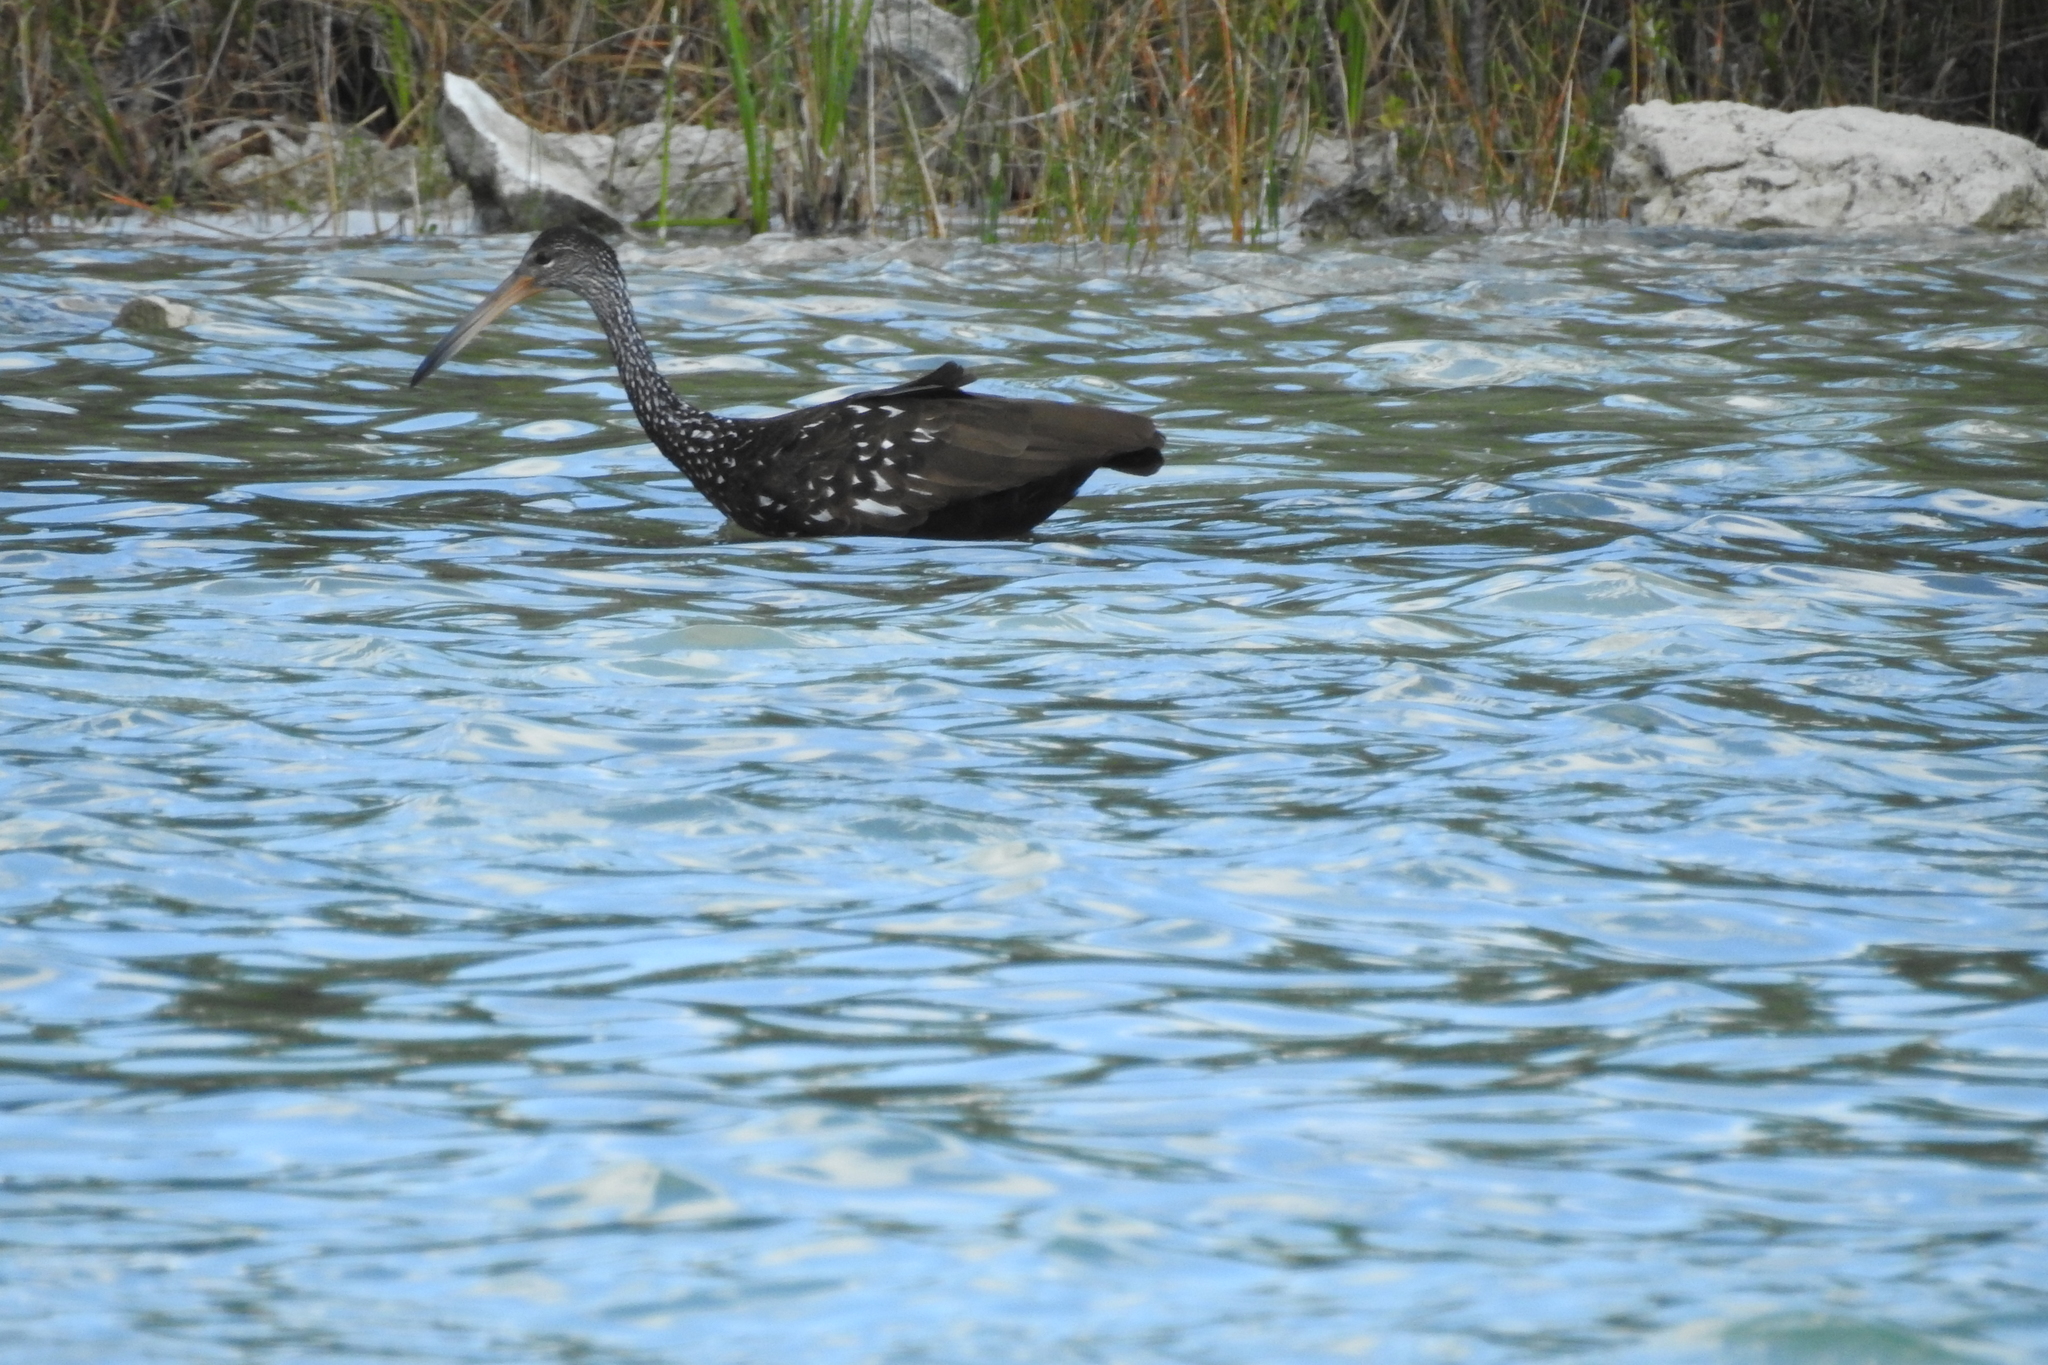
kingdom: Animalia
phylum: Chordata
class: Aves
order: Gruiformes
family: Aramidae
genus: Aramus
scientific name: Aramus guarauna
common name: Limpkin
